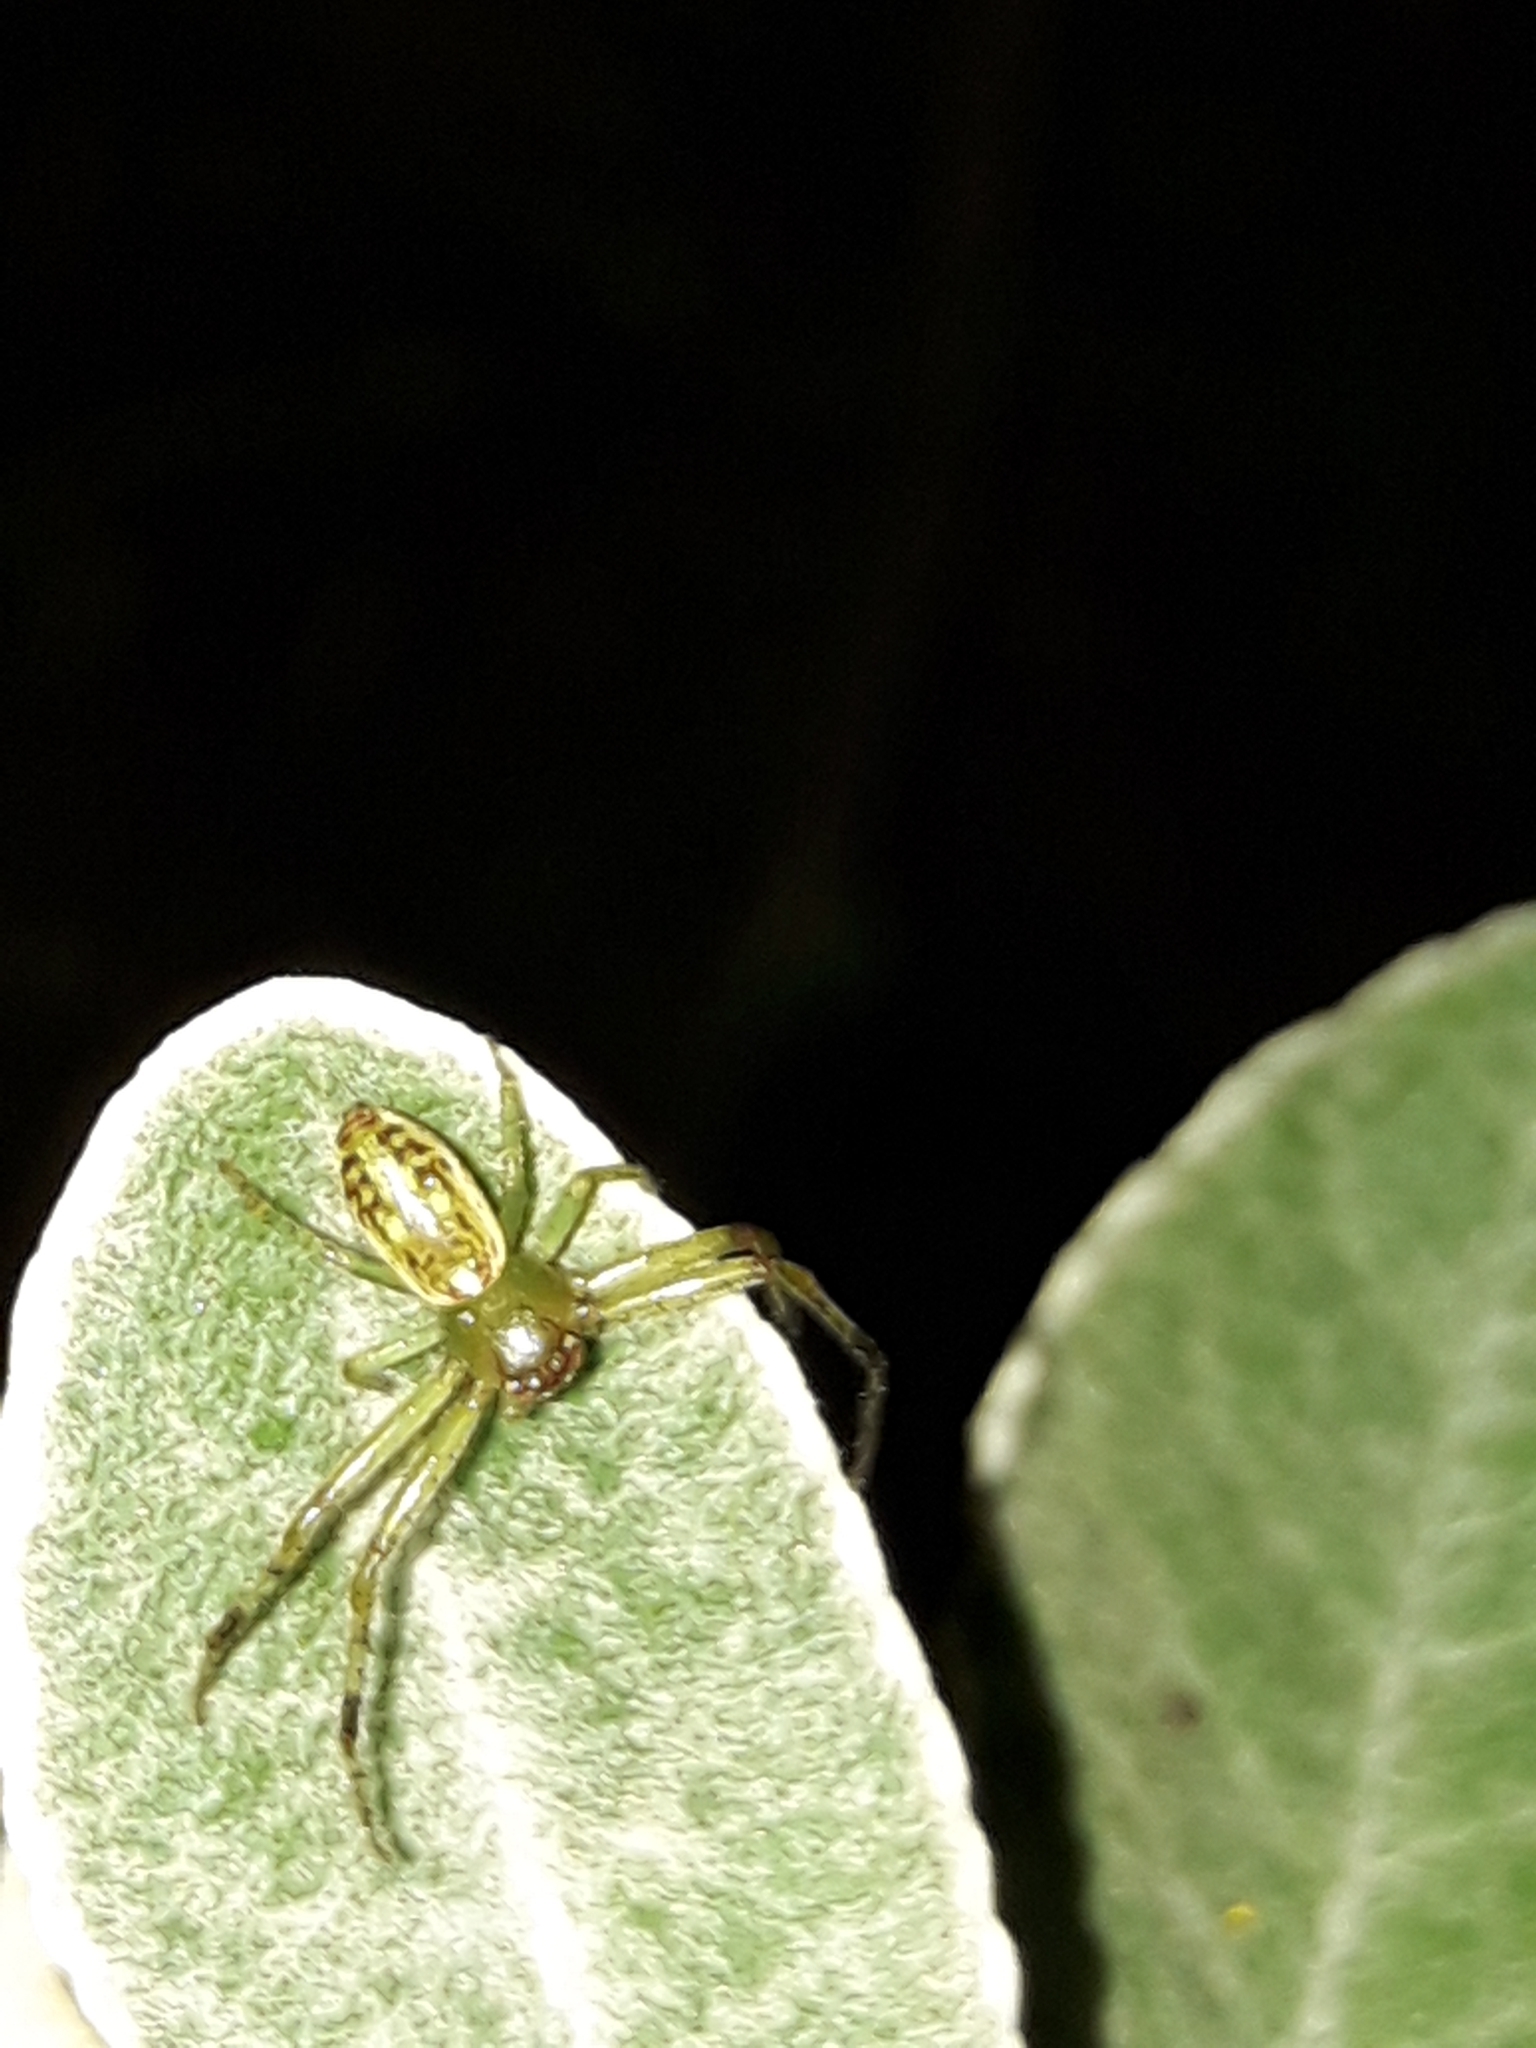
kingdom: Animalia
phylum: Arthropoda
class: Arachnida
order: Araneae
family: Thomisidae
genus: Diaea
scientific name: Diaea ambara
